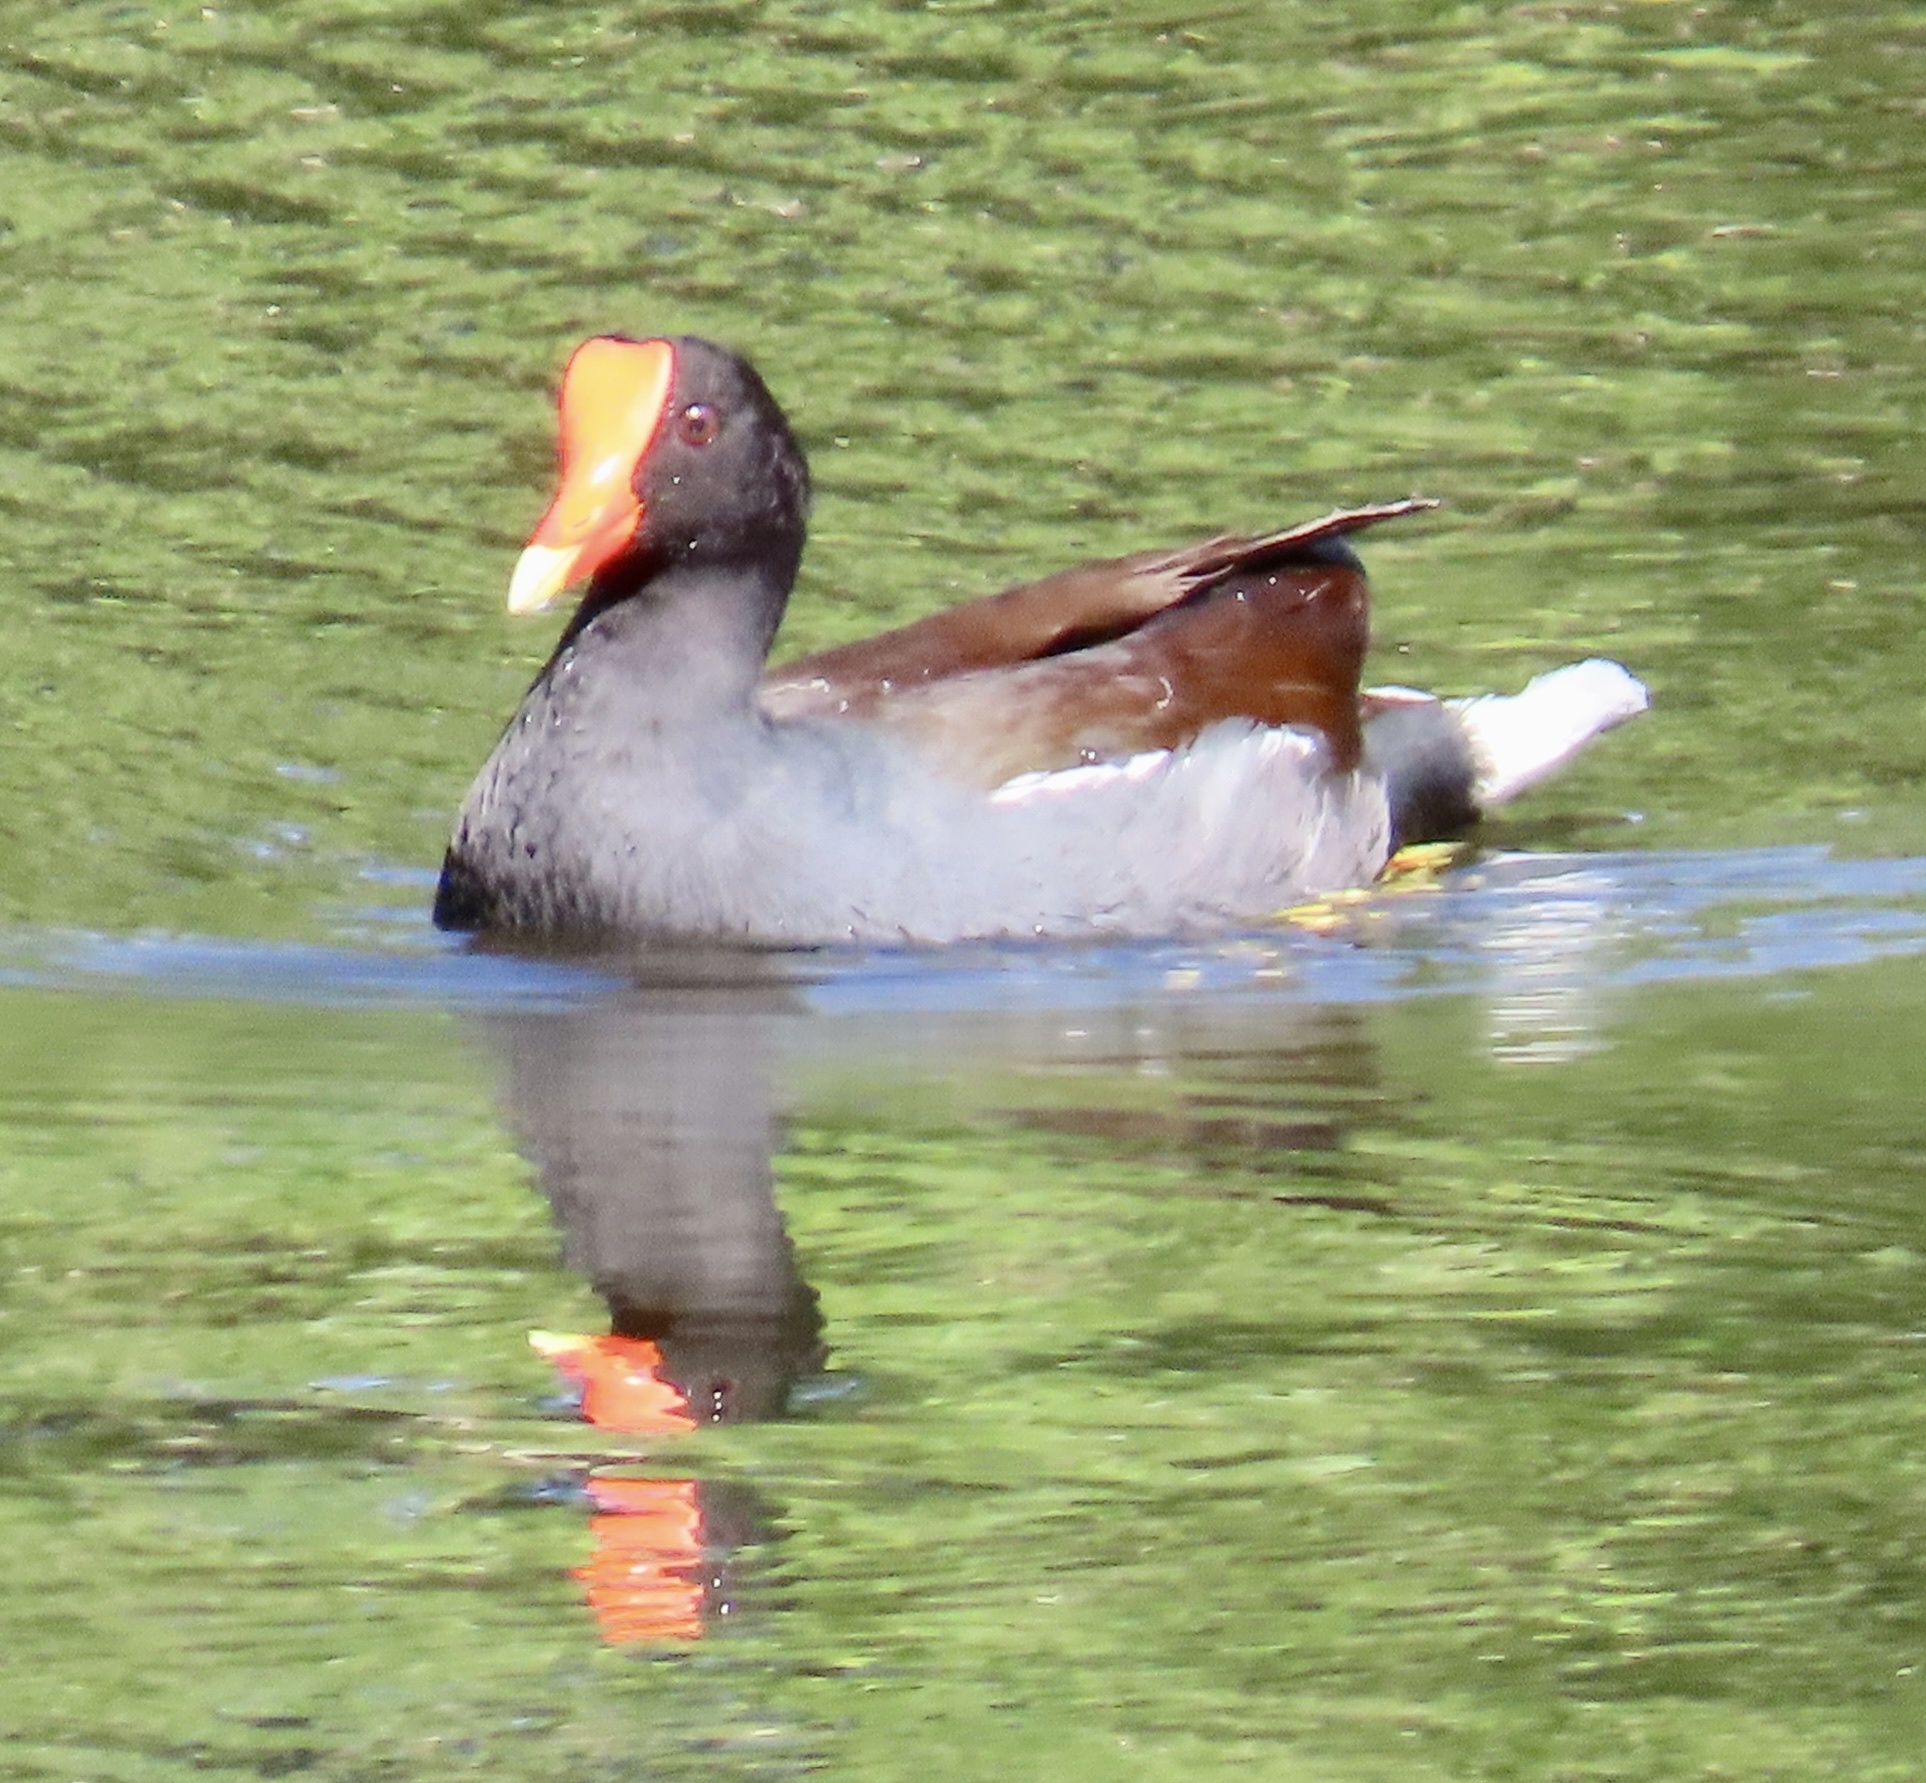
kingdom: Animalia
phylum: Chordata
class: Aves
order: Gruiformes
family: Rallidae
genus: Gallinula
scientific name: Gallinula chloropus
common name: Common moorhen
